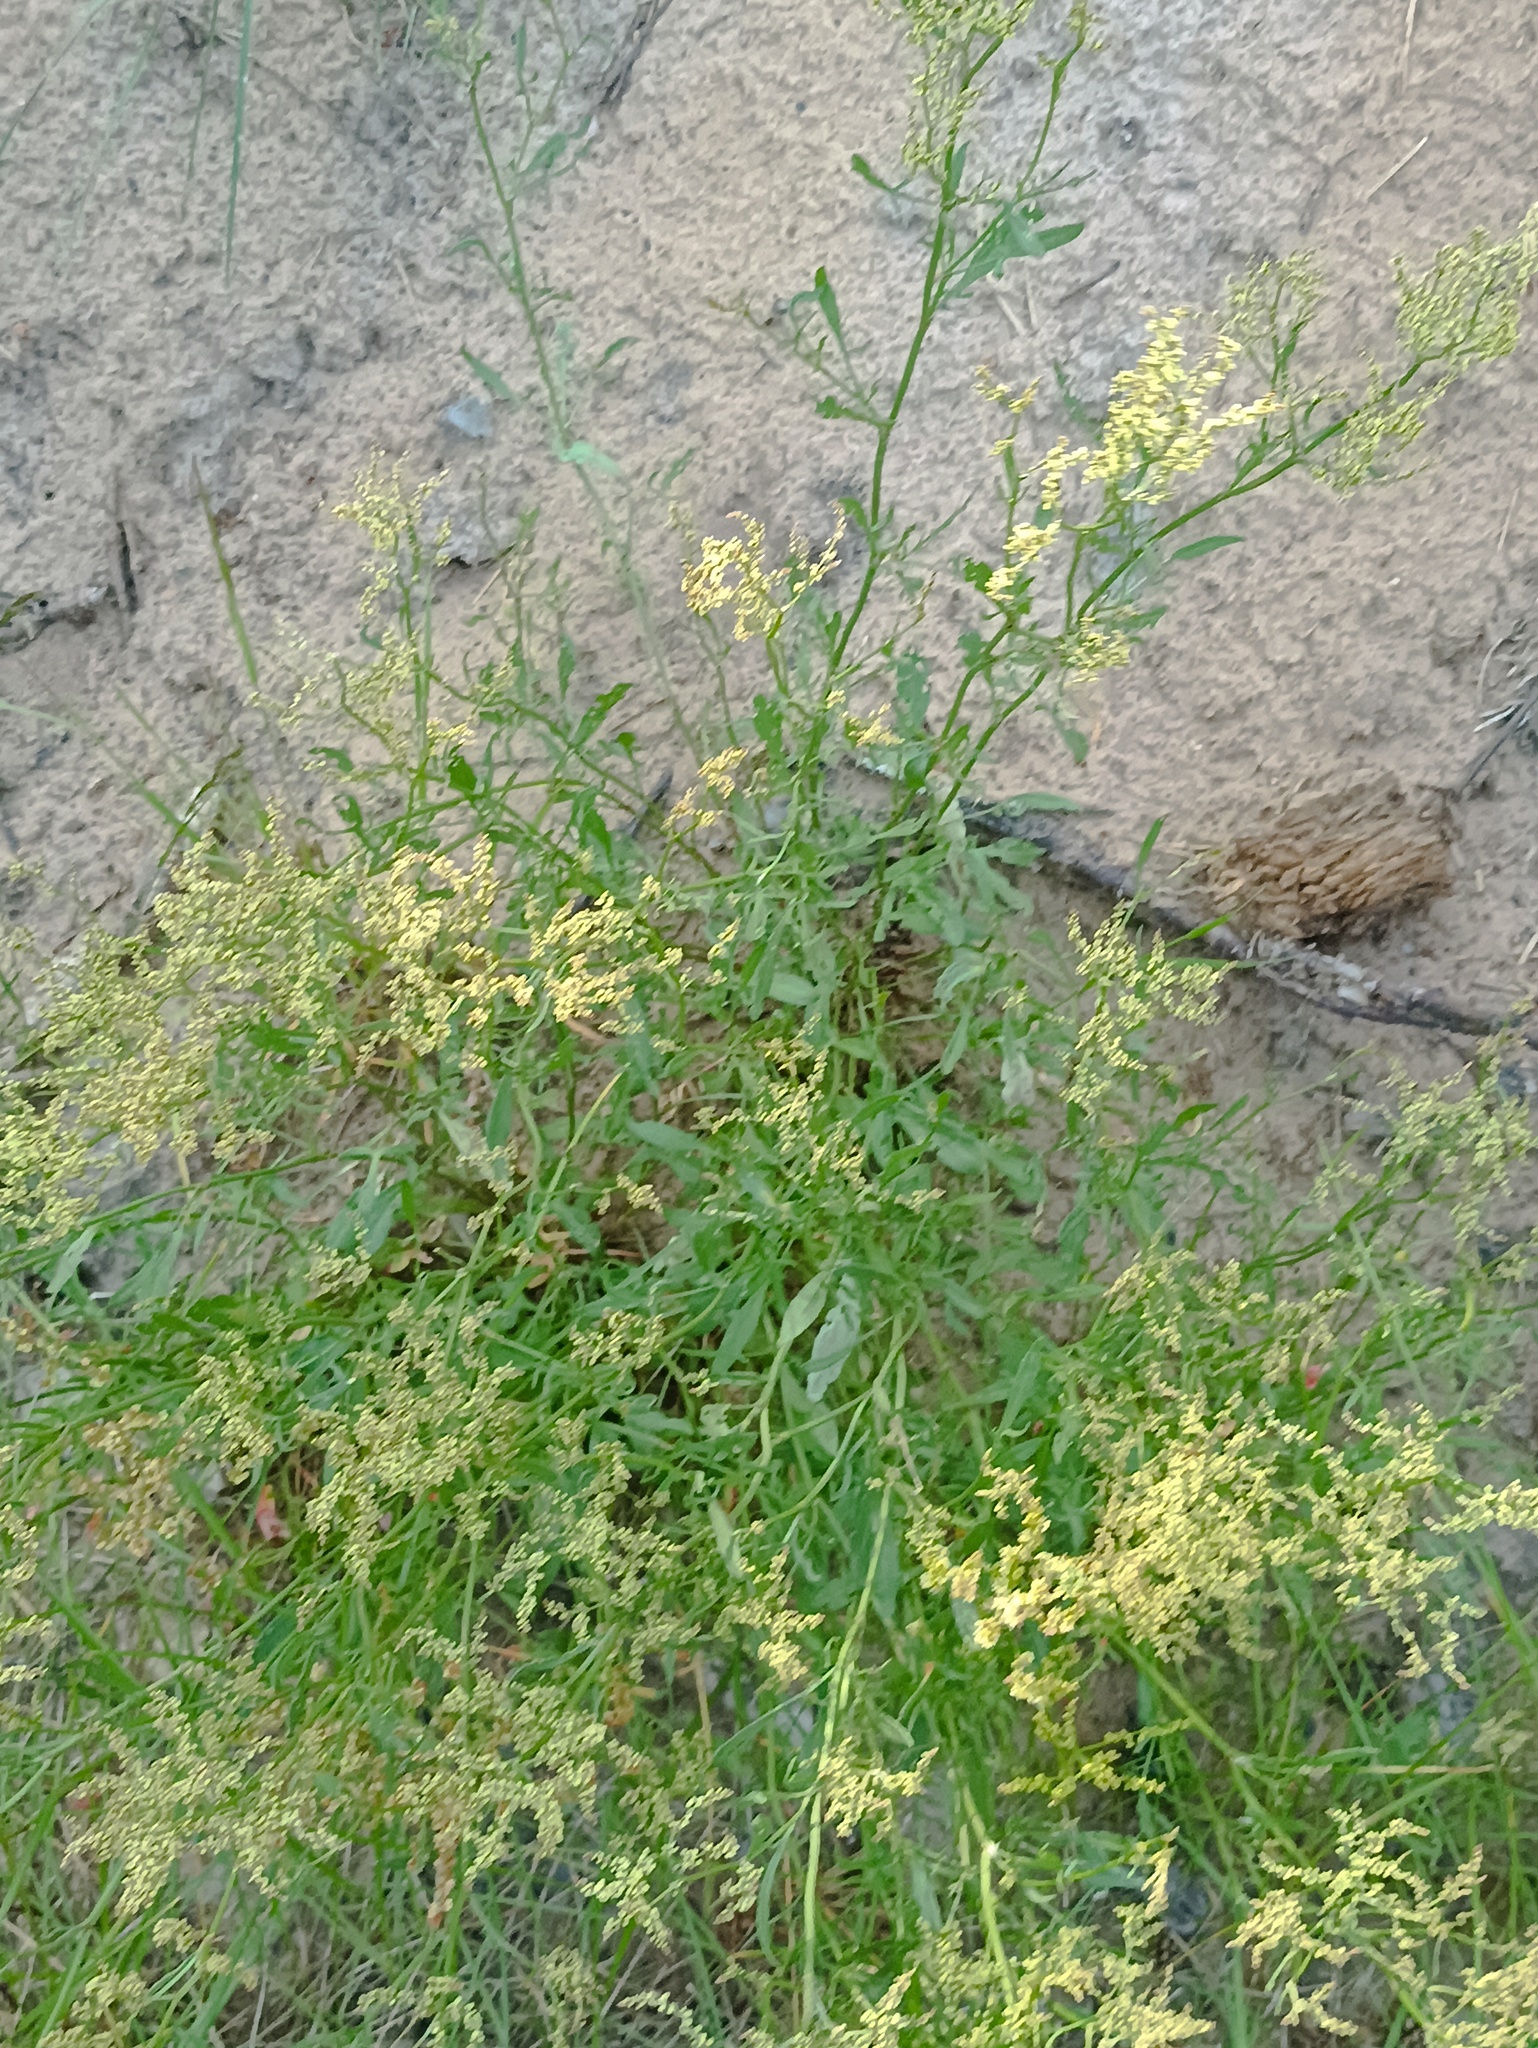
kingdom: Plantae
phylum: Tracheophyta
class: Magnoliopsida
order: Caryophyllales
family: Polygonaceae
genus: Rumex
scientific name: Rumex acetosella
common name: Common sheep sorrel
